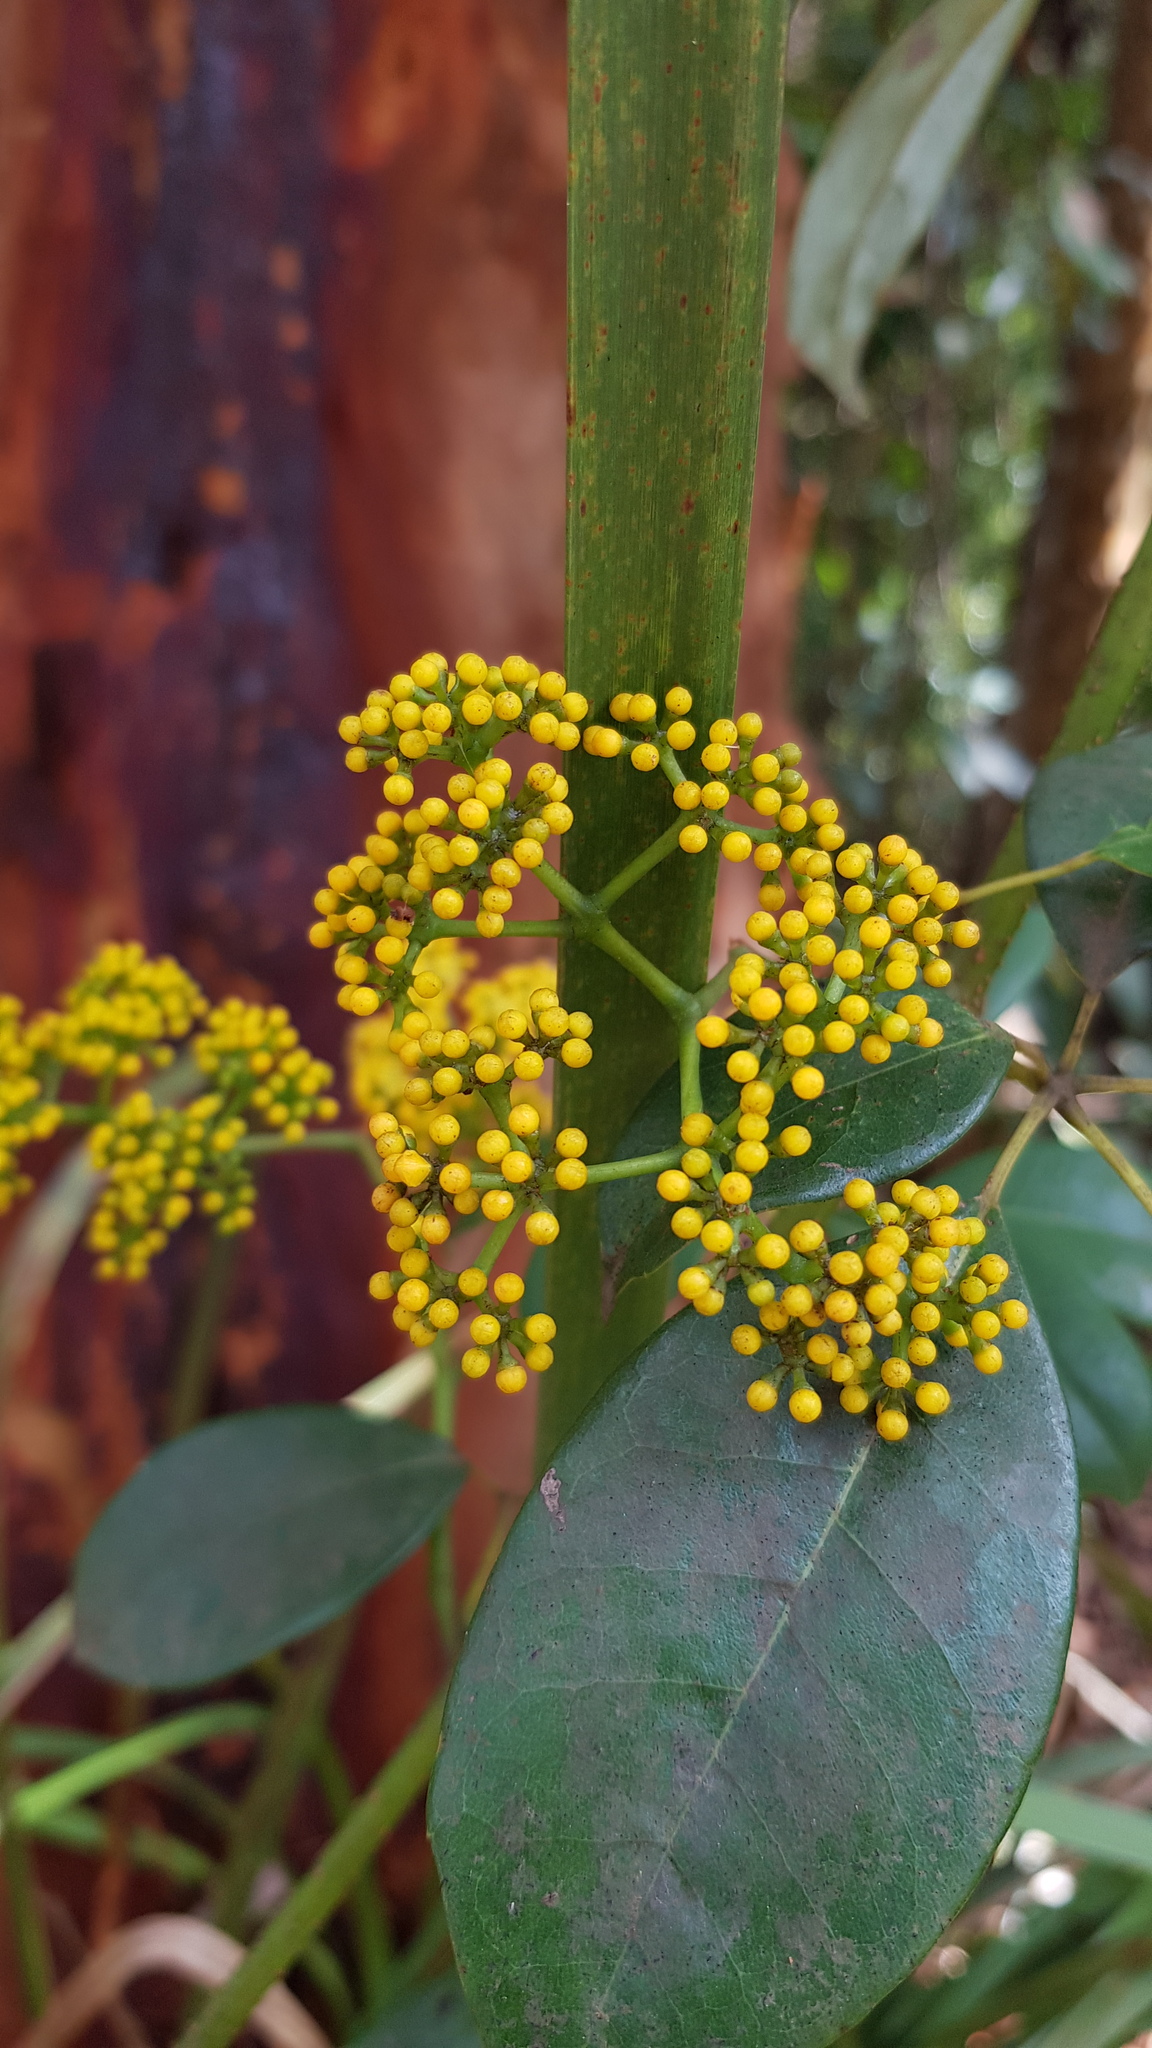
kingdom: Plantae
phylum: Tracheophyta
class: Magnoliopsida
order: Vitales
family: Vitaceae
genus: Nothocissus
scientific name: Nothocissus hypoglauca
